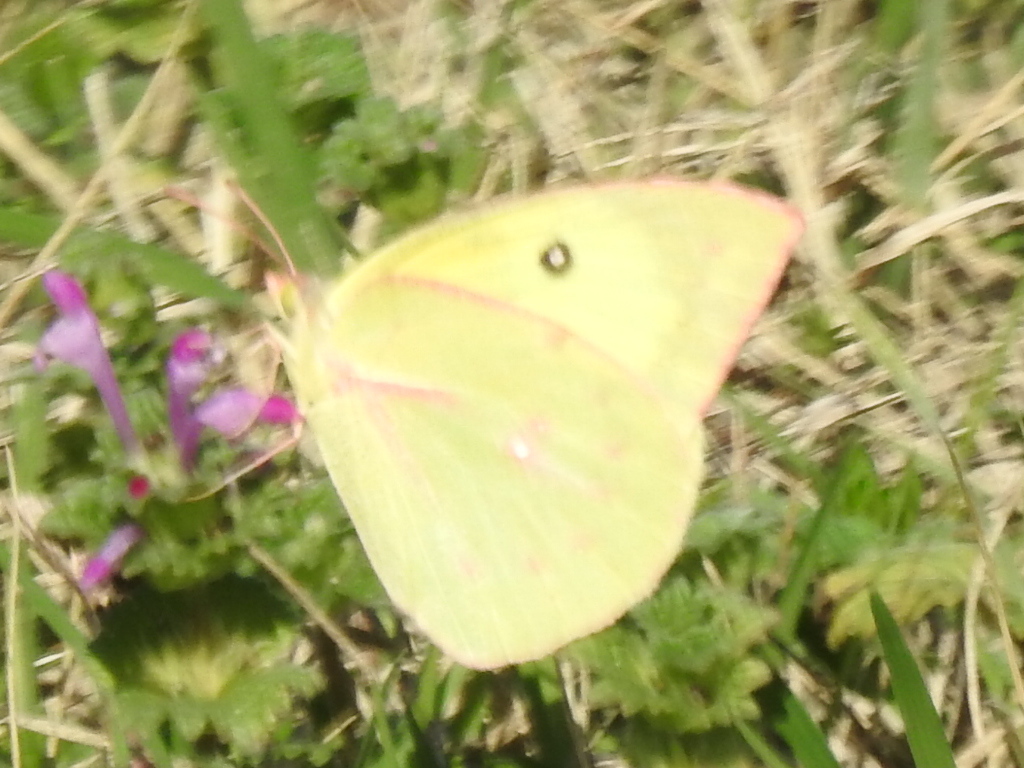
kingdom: Animalia
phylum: Arthropoda
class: Insecta
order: Lepidoptera
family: Pieridae
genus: Zerene
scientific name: Zerene cesonia
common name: Southern dogface
